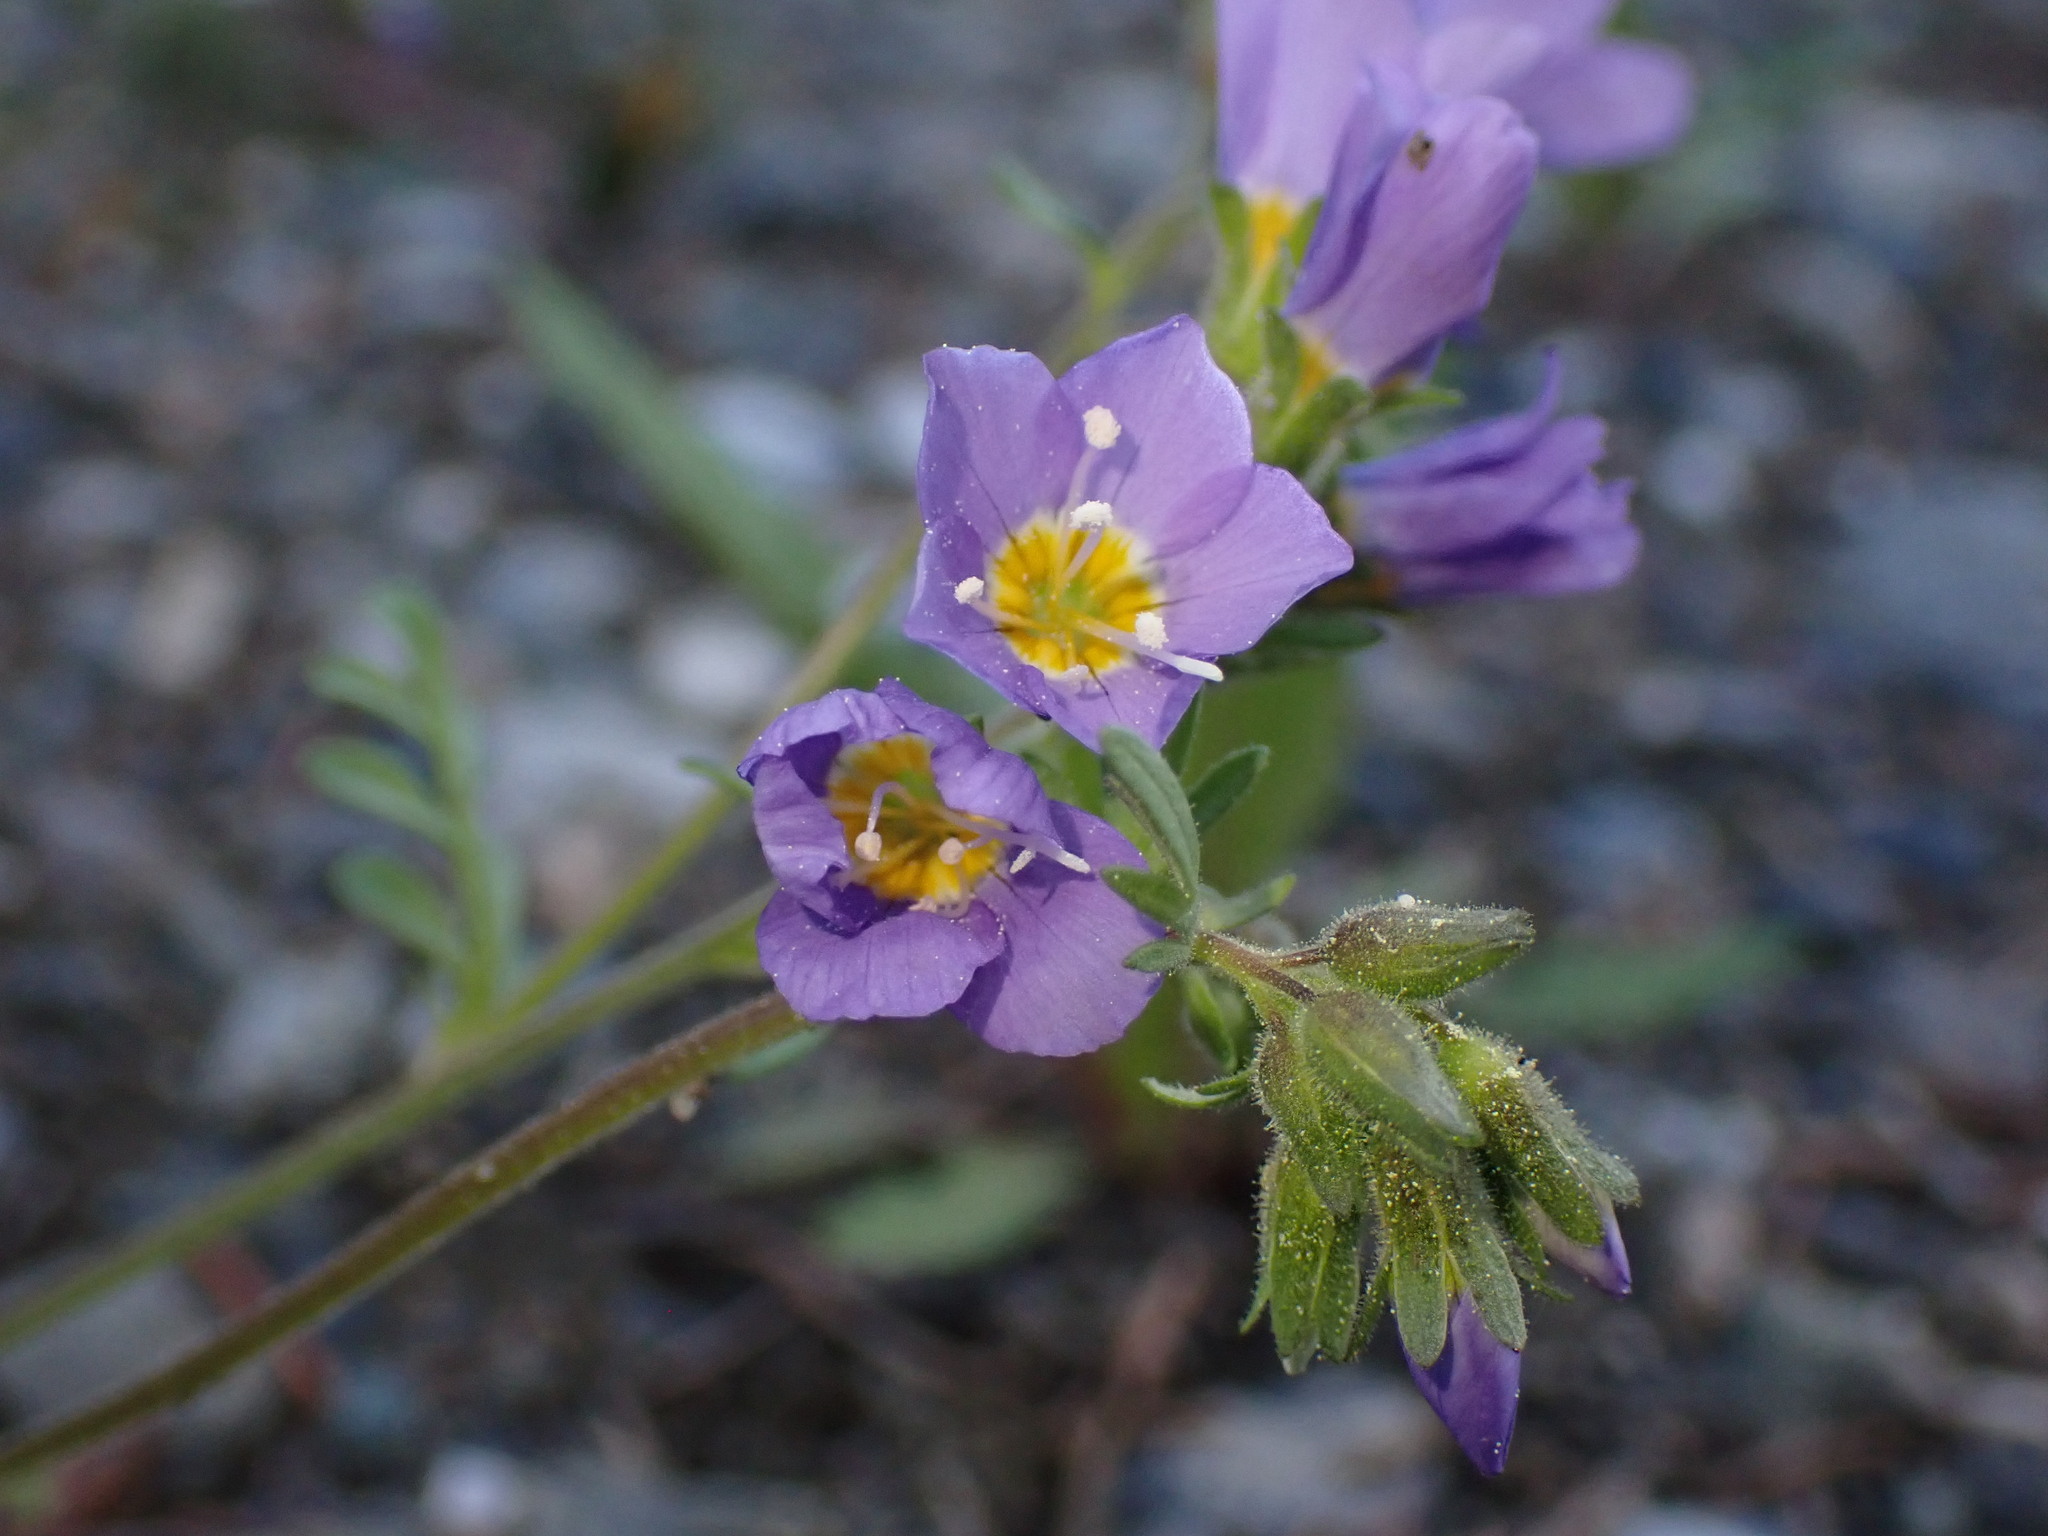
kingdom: Plantae
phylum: Tracheophyta
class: Magnoliopsida
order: Ericales
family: Polemoniaceae
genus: Polemonium
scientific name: Polemonium pulcherrimum
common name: Short jacob's-ladder
